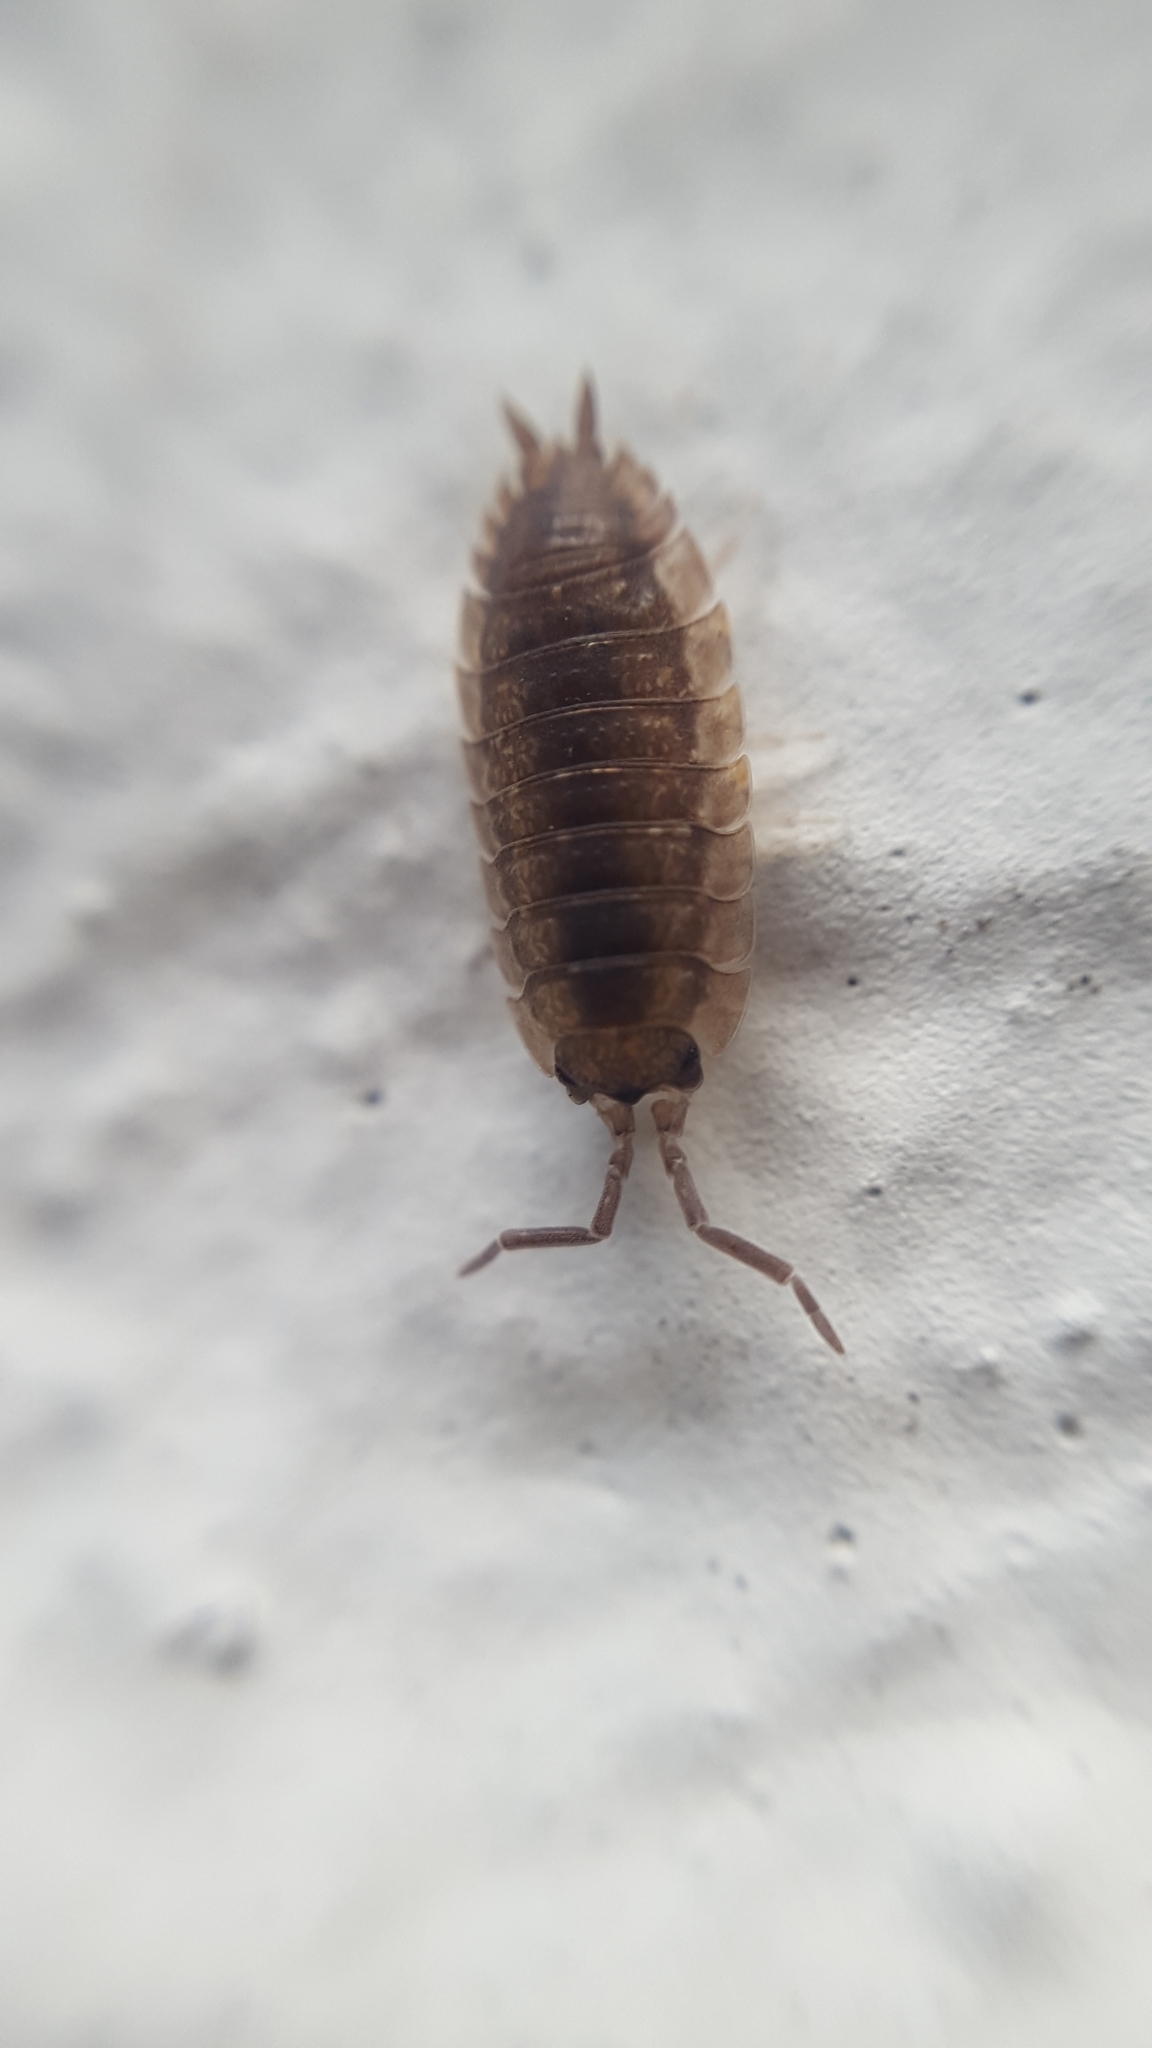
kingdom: Animalia
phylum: Arthropoda
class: Malacostraca
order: Isopoda
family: Porcellionidae
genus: Porcellio
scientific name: Porcellio scaber
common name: Common rough woodlouse
